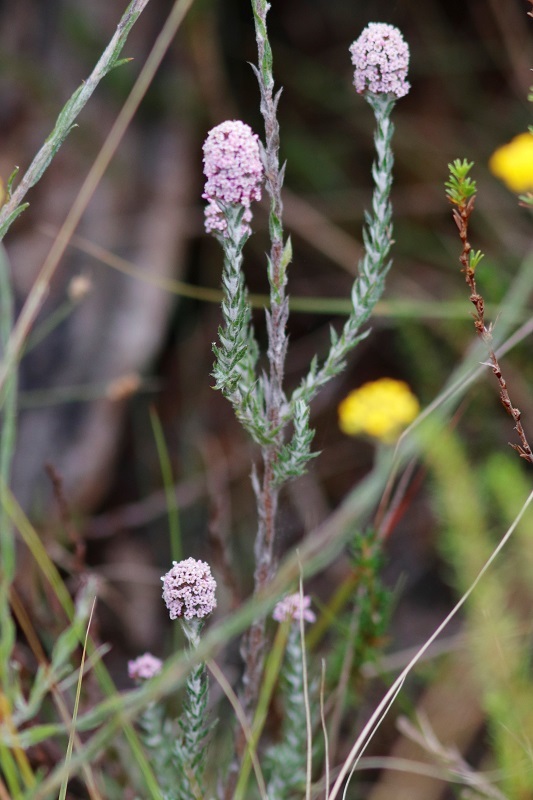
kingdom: Plantae
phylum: Tracheophyta
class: Magnoliopsida
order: Asterales
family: Asteraceae
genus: Stoebe
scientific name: Stoebe phyllostachya
